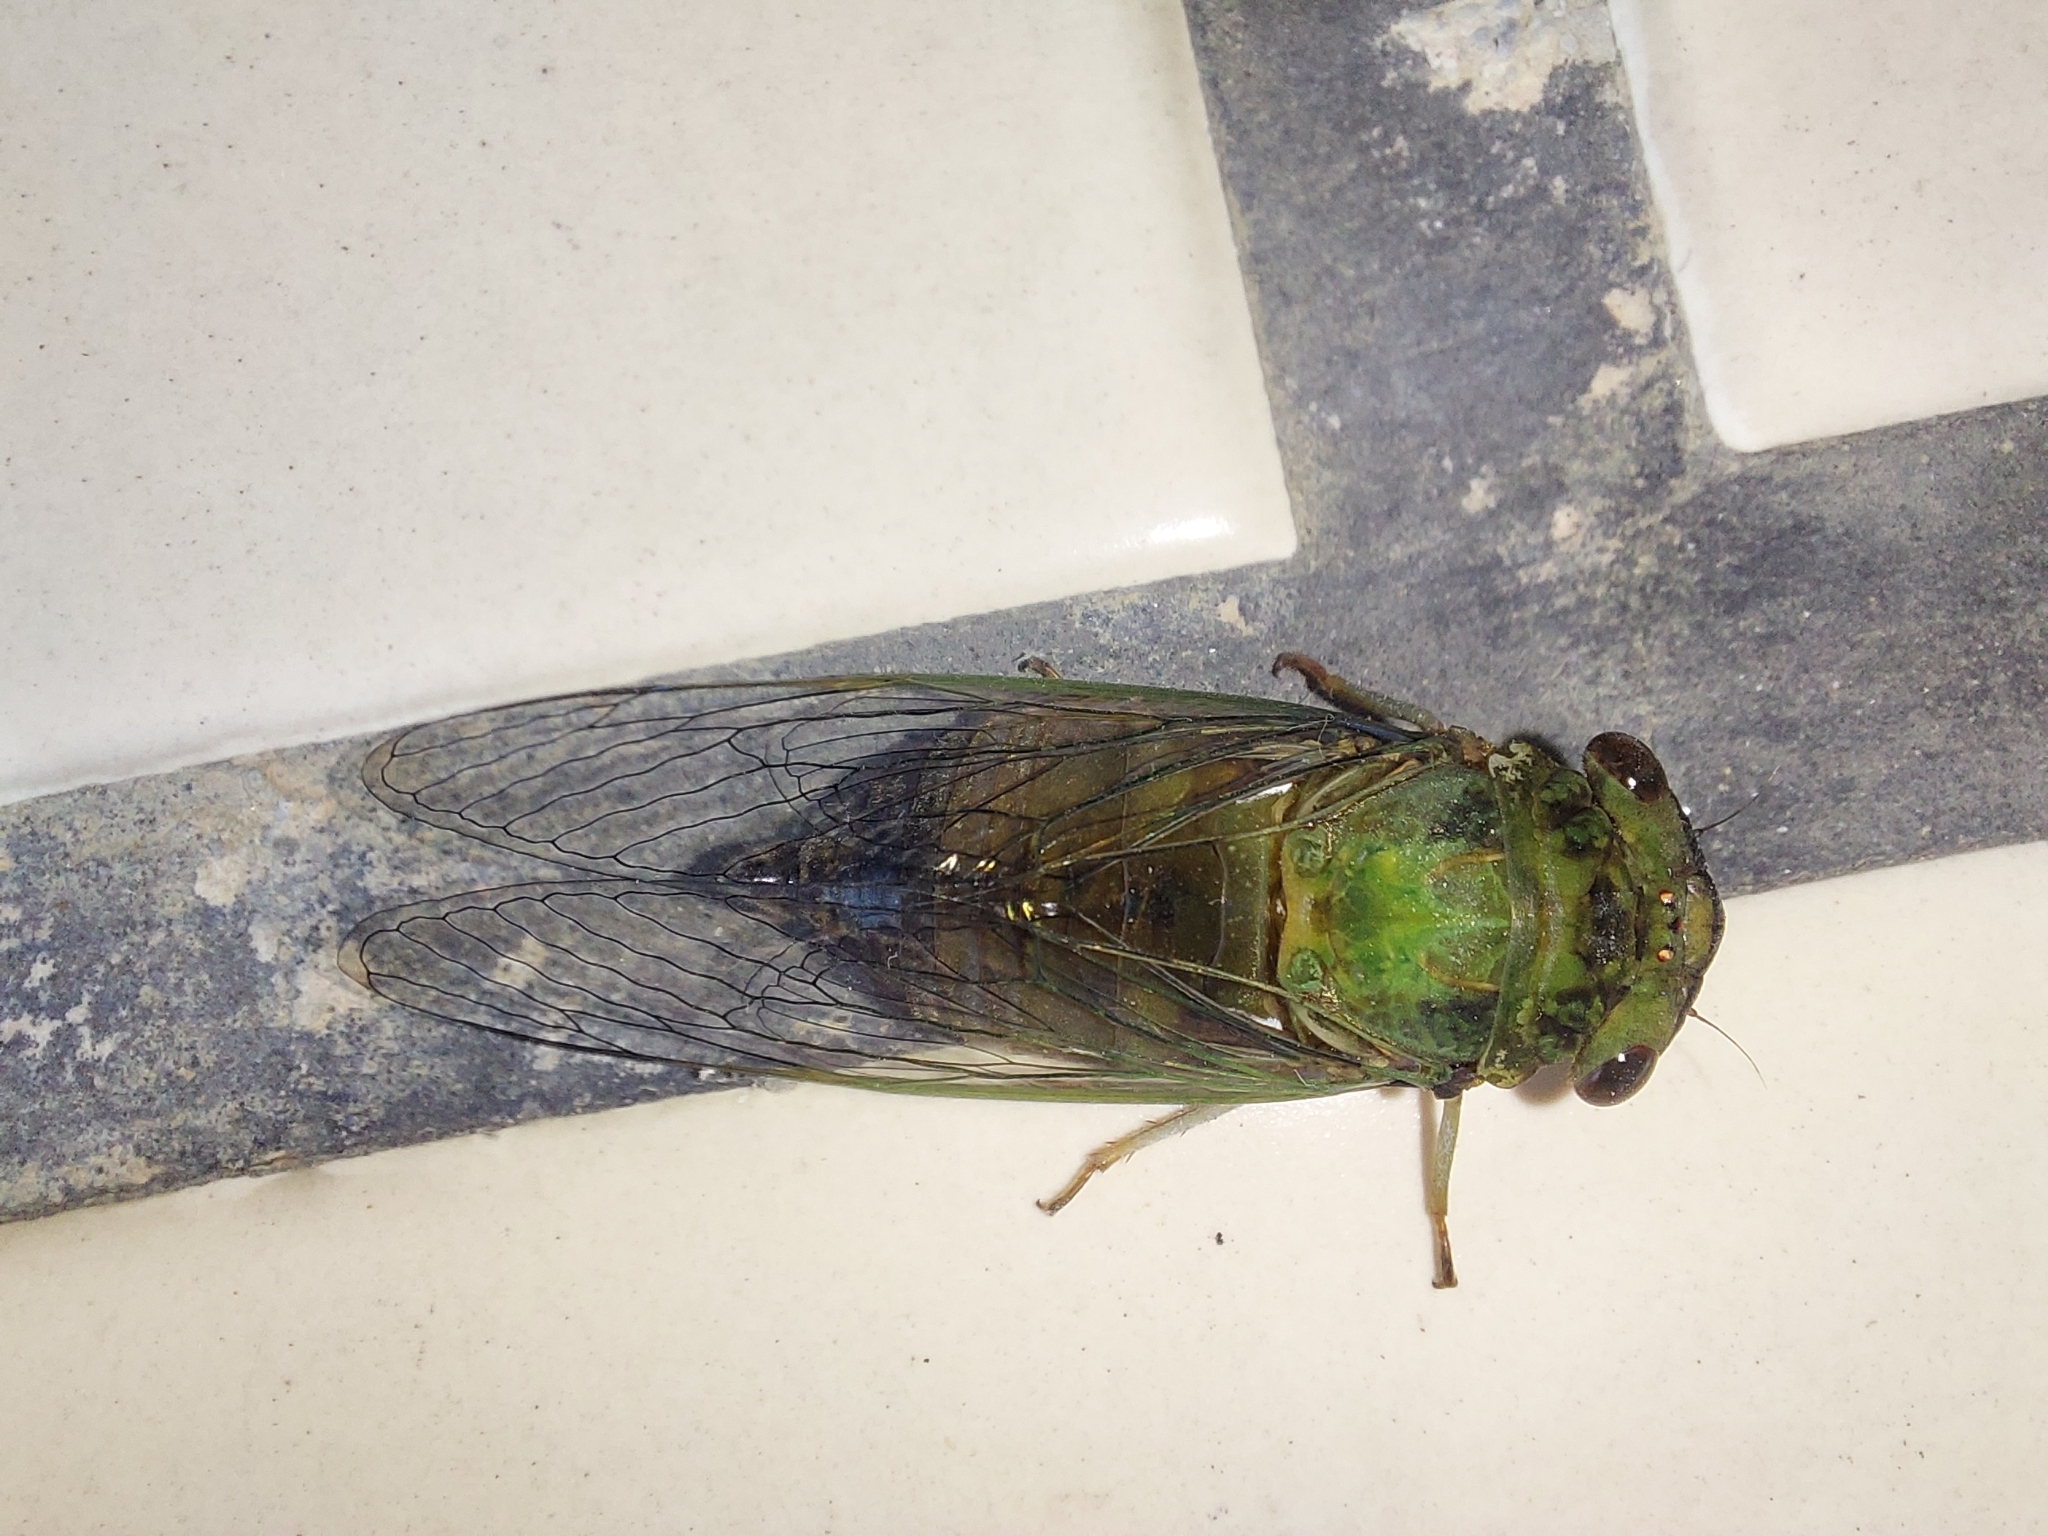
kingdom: Animalia
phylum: Arthropoda
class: Insecta
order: Hemiptera
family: Cicadidae
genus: Chremistica
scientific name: Chremistica ochracea
